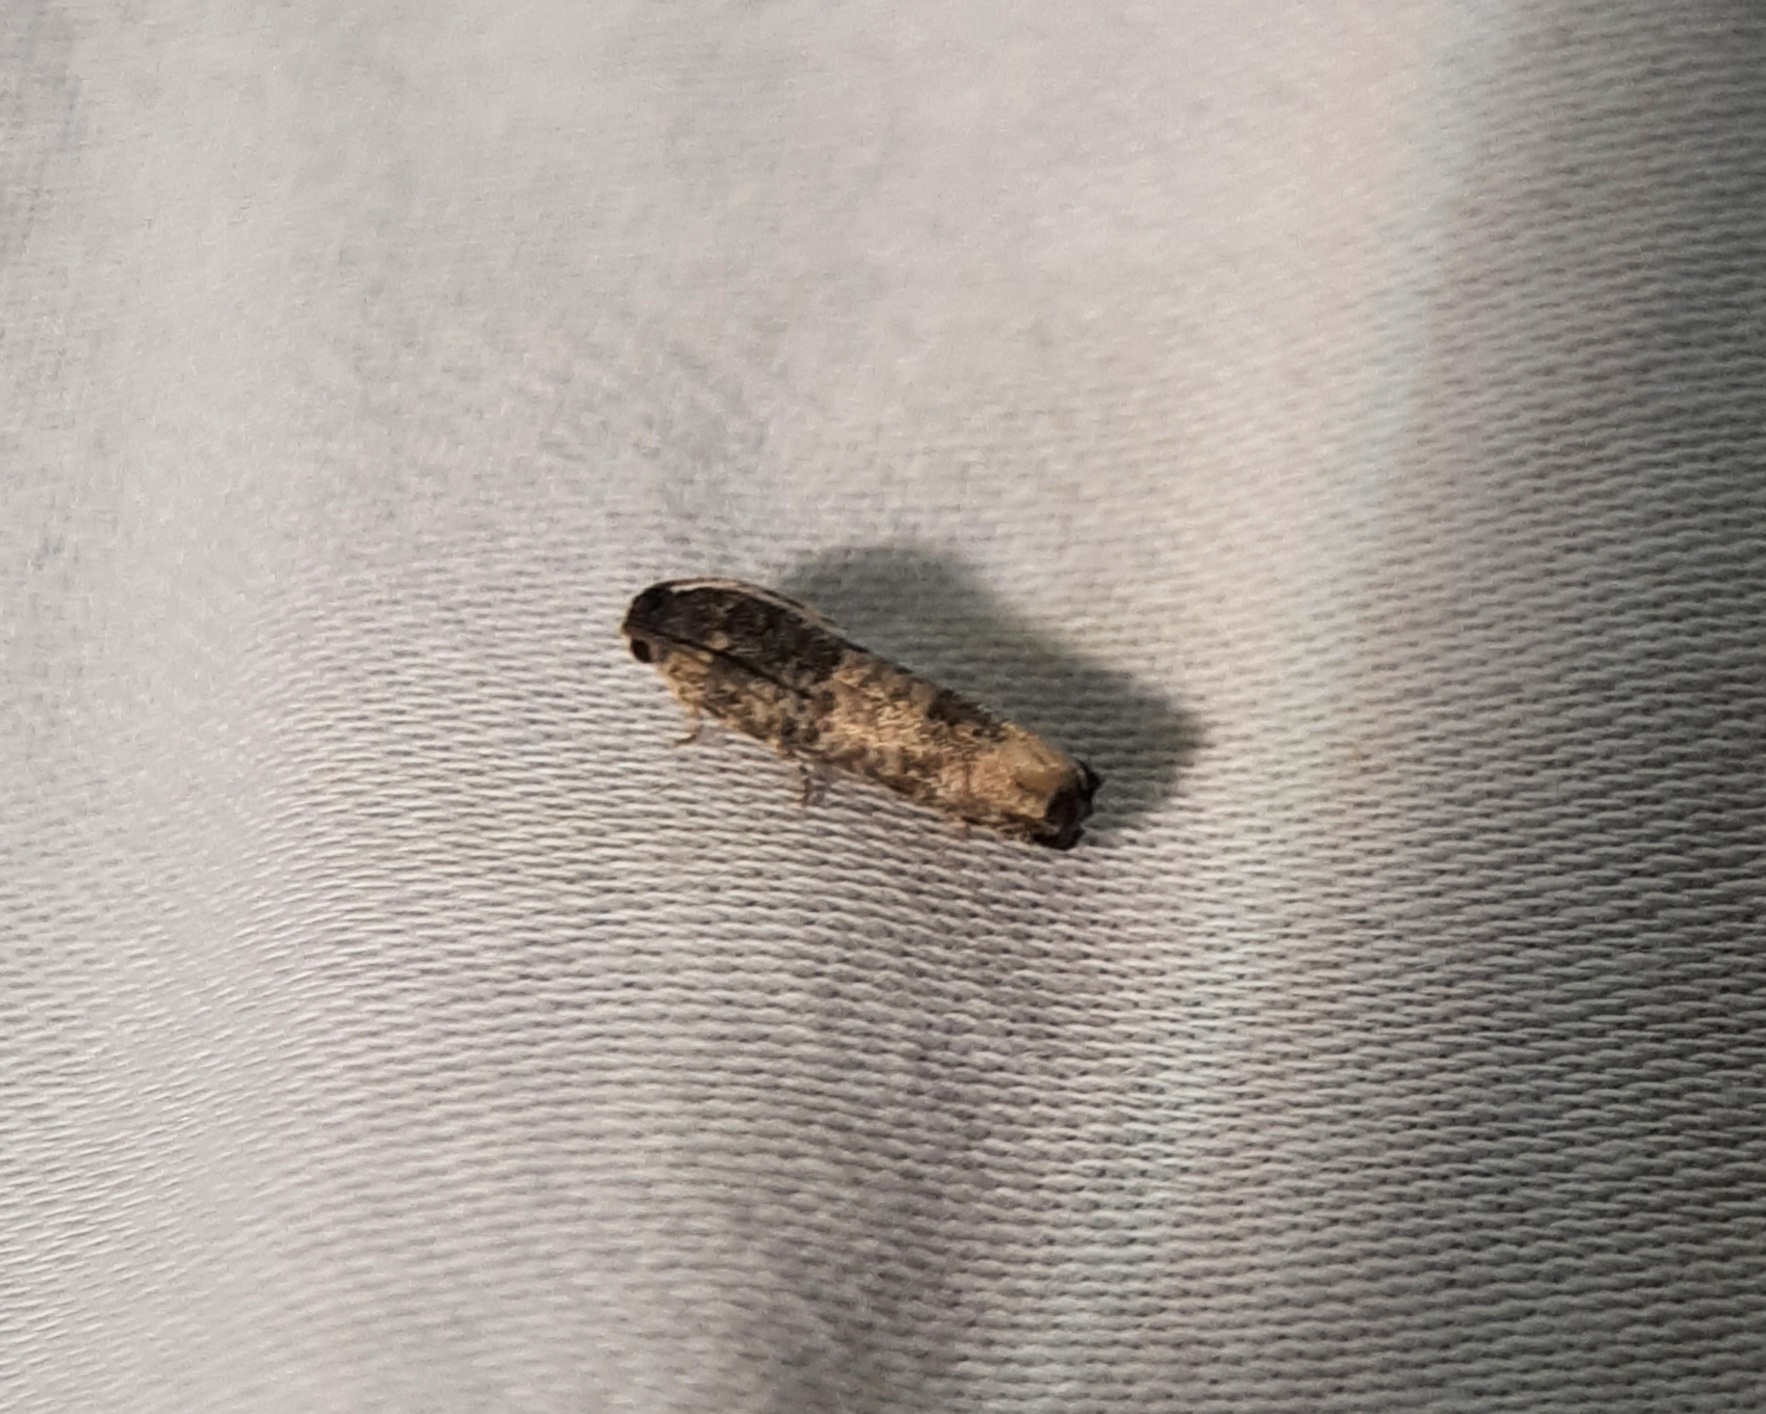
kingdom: Animalia
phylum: Arthropoda
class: Insecta
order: Lepidoptera
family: Tortricidae
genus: Epiblema
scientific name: Epiblema obfuscana
